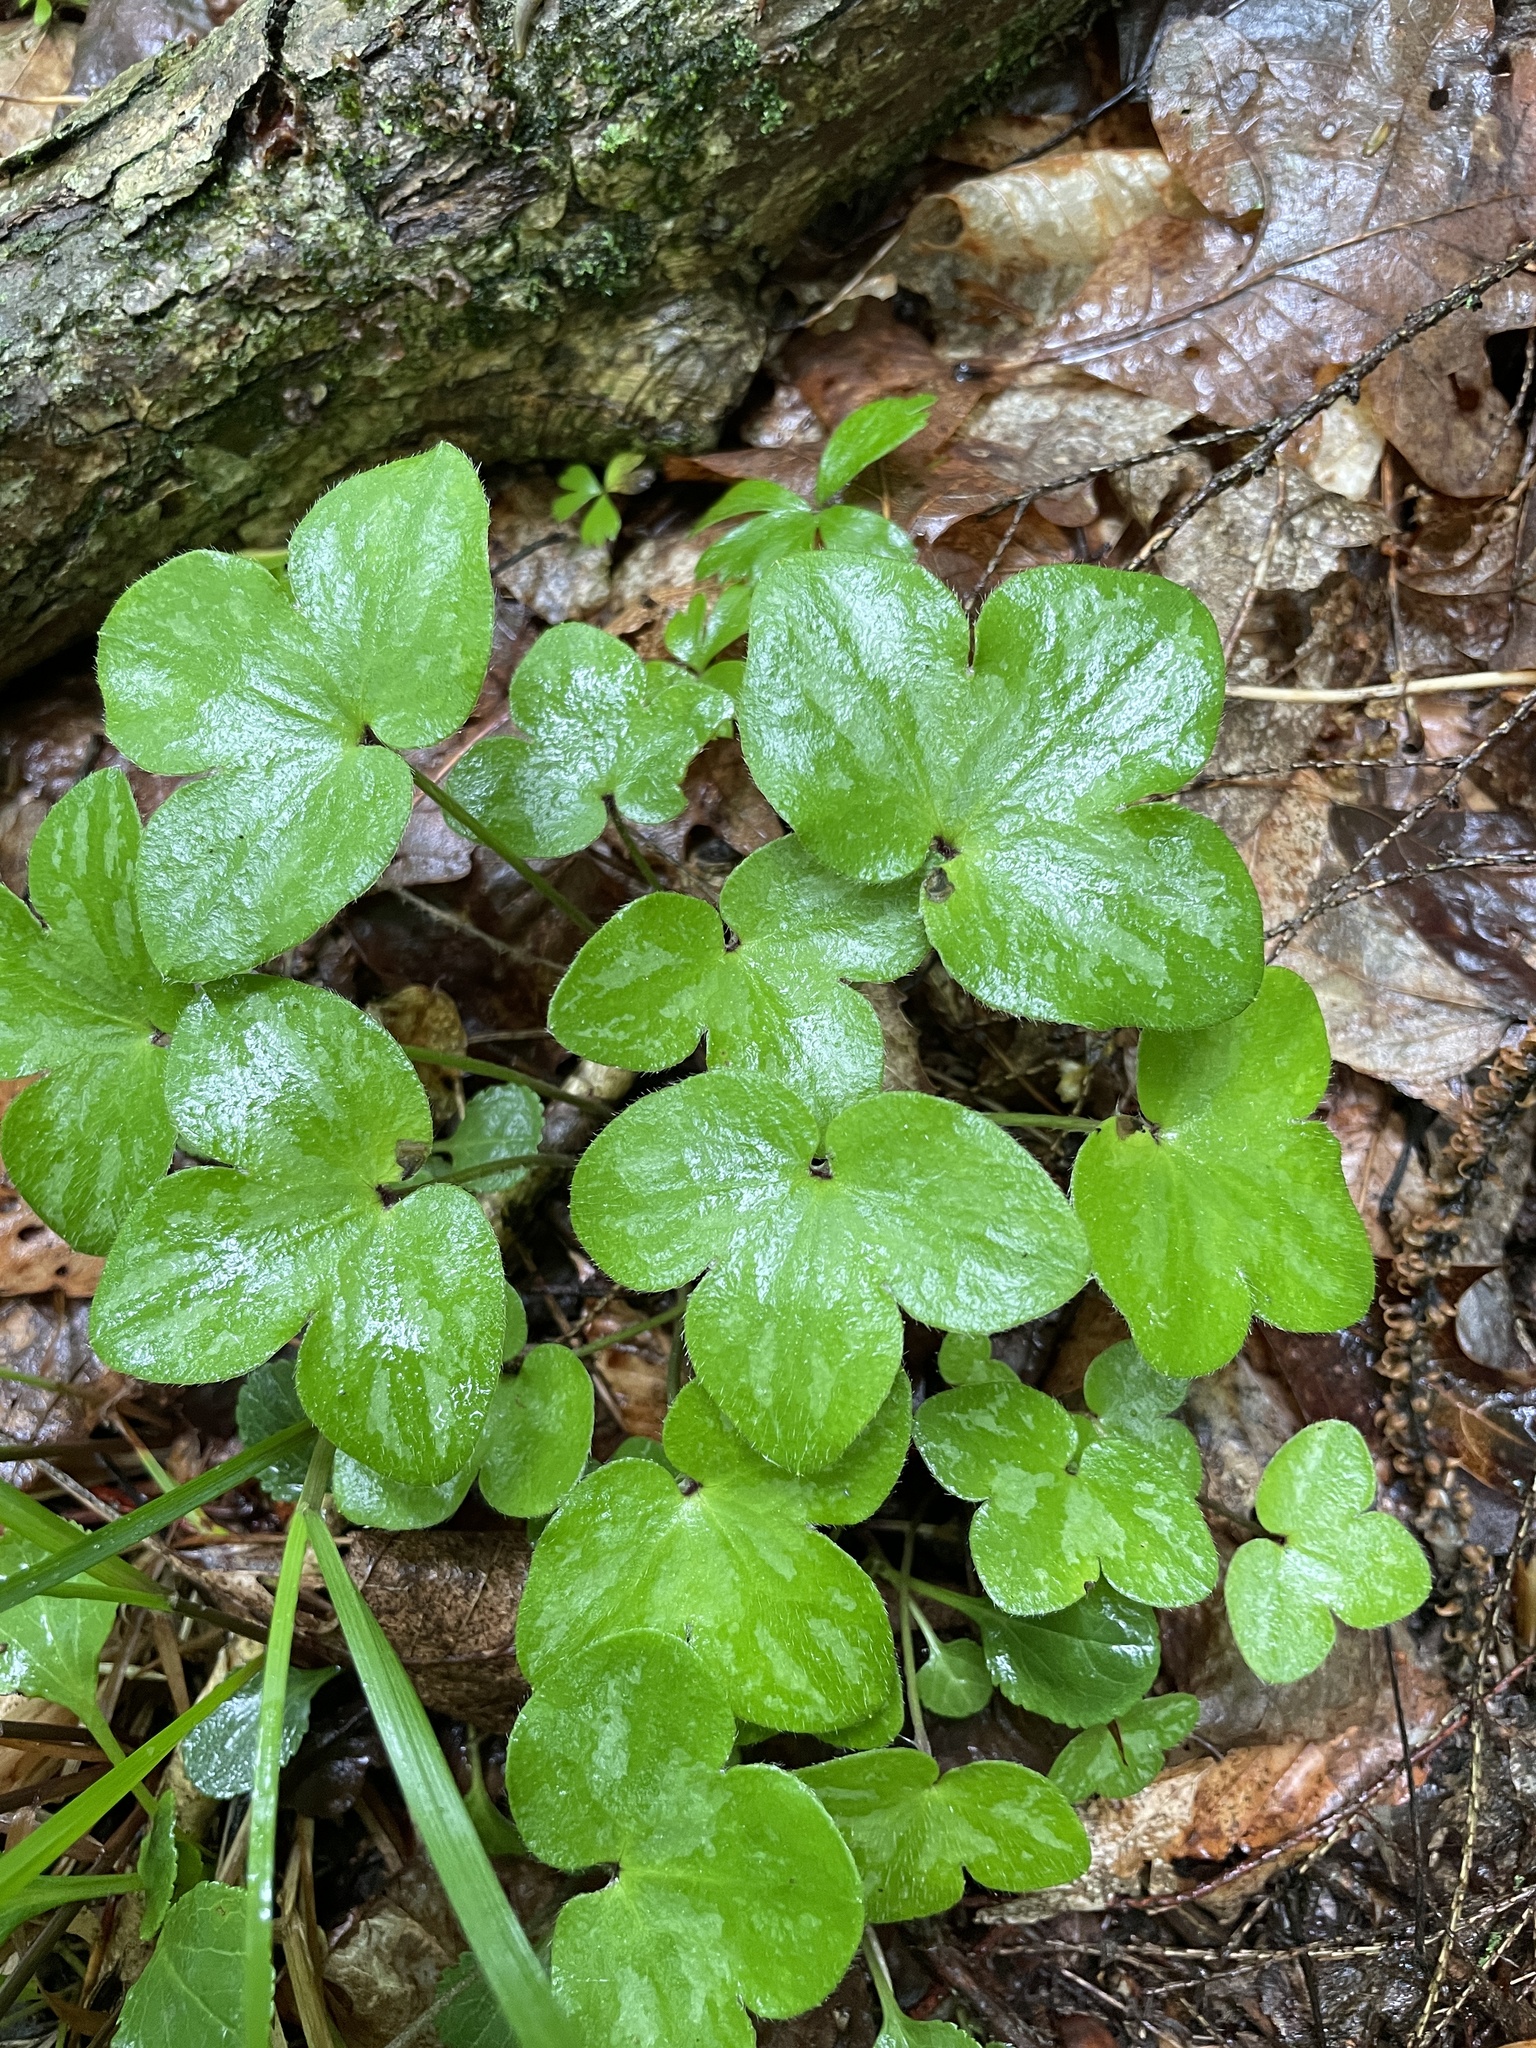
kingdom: Plantae
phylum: Tracheophyta
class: Magnoliopsida
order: Ranunculales
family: Ranunculaceae
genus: Hepatica
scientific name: Hepatica americana
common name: American hepatica
